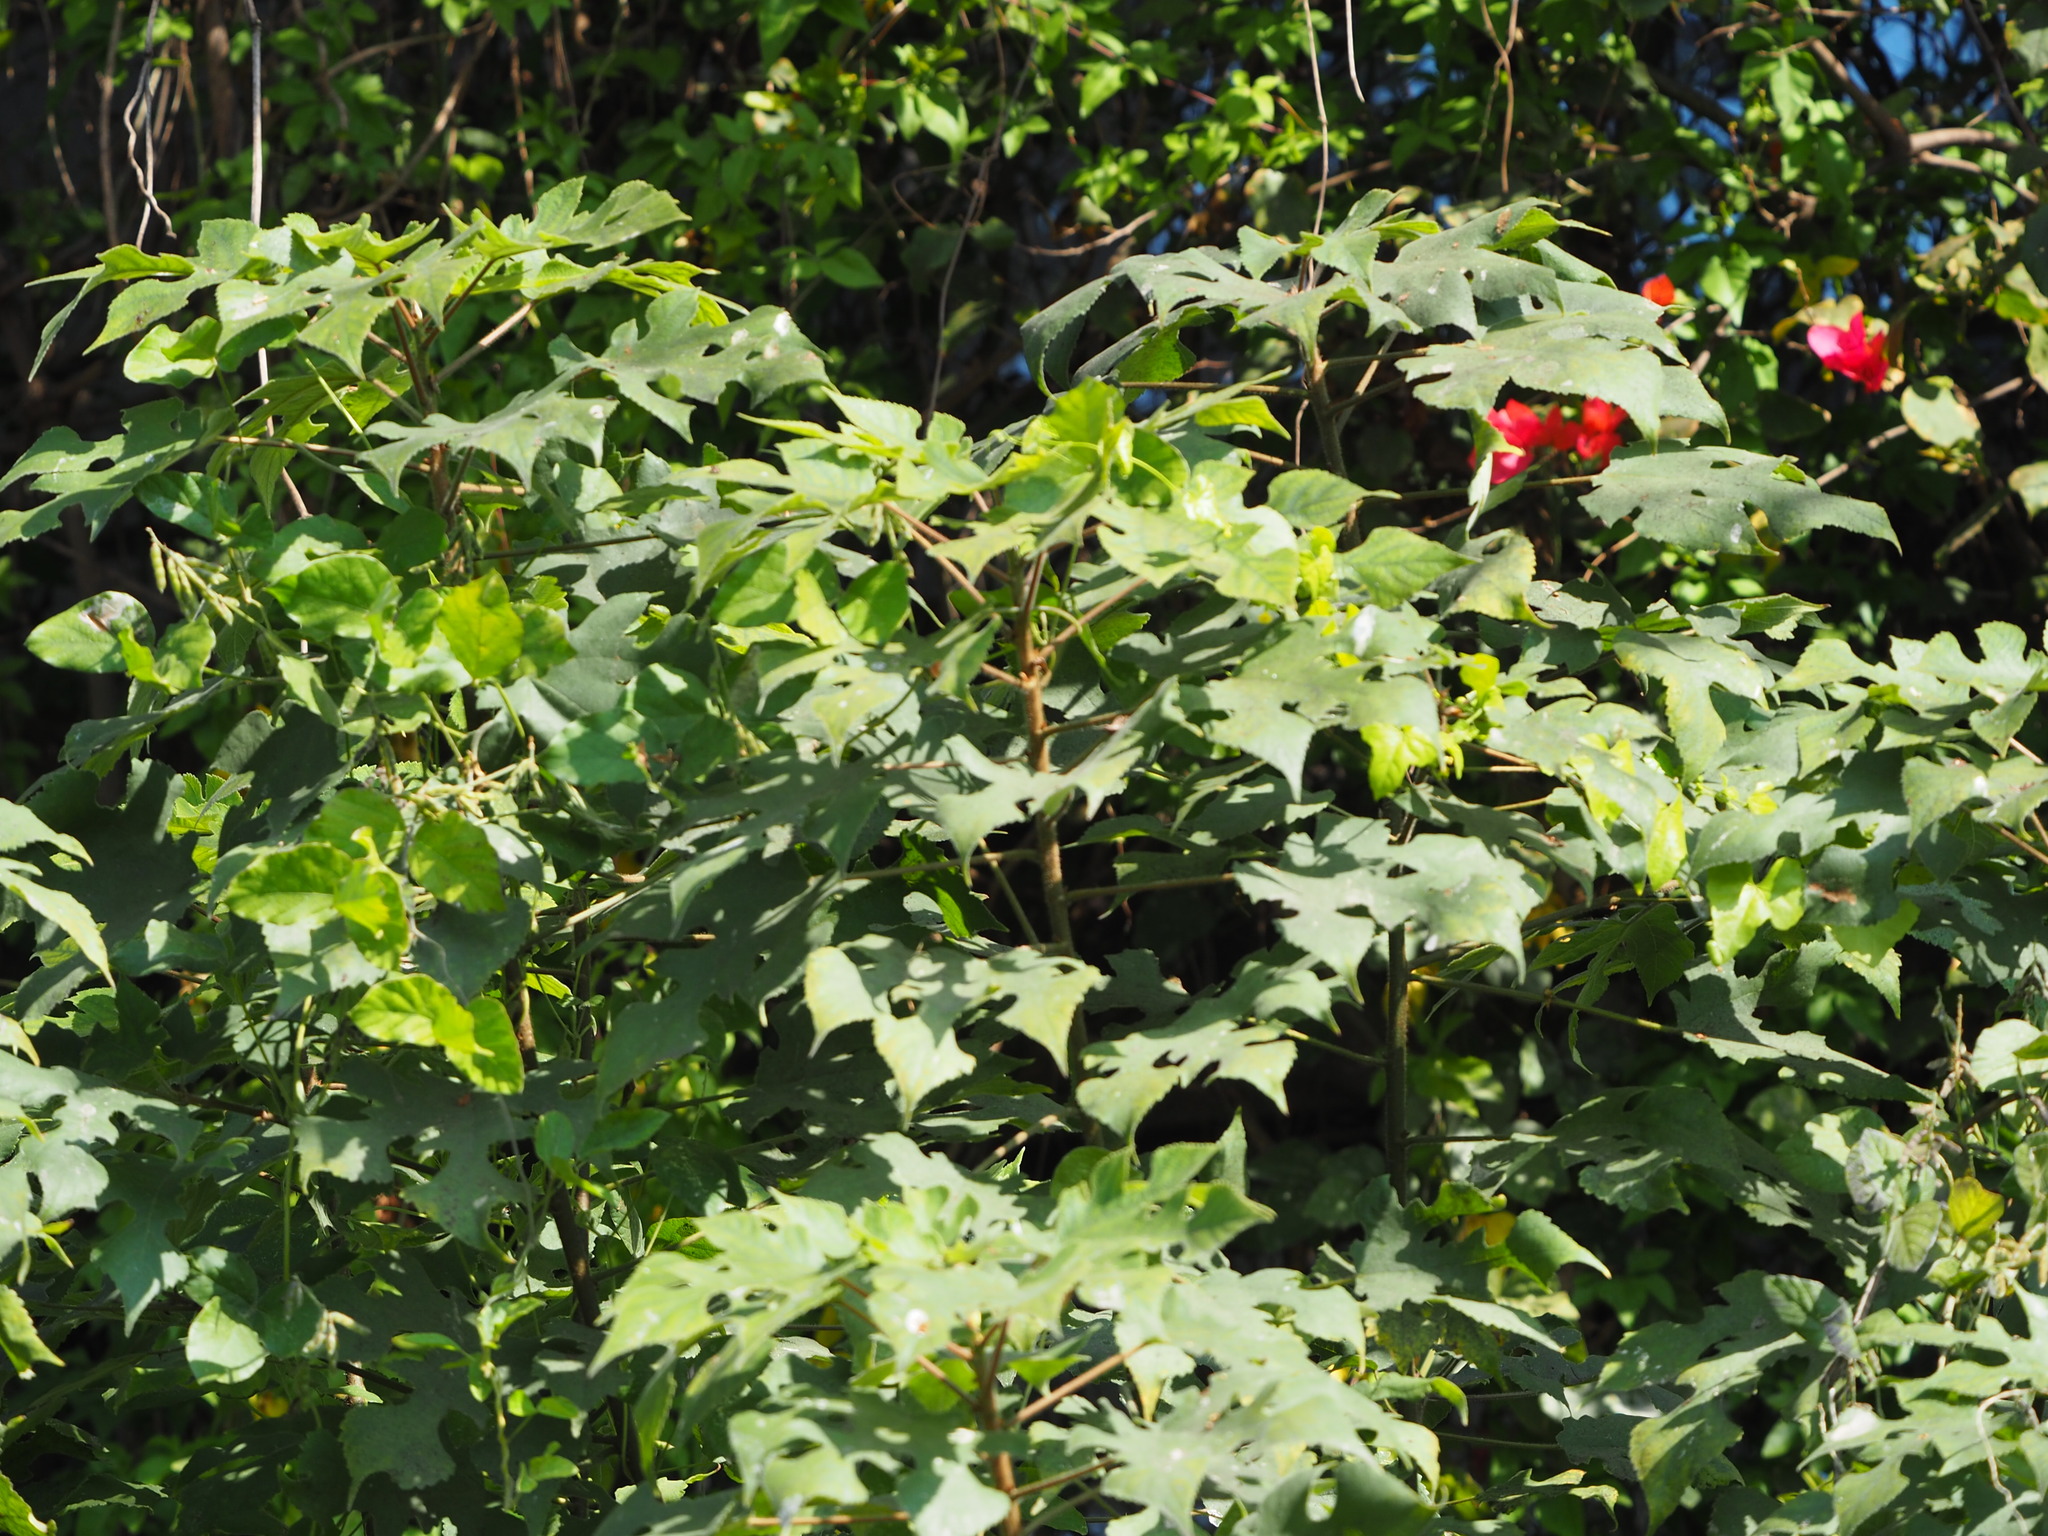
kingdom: Plantae
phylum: Tracheophyta
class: Magnoliopsida
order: Rosales
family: Moraceae
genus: Broussonetia
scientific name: Broussonetia papyrifera
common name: Paper mulberry
